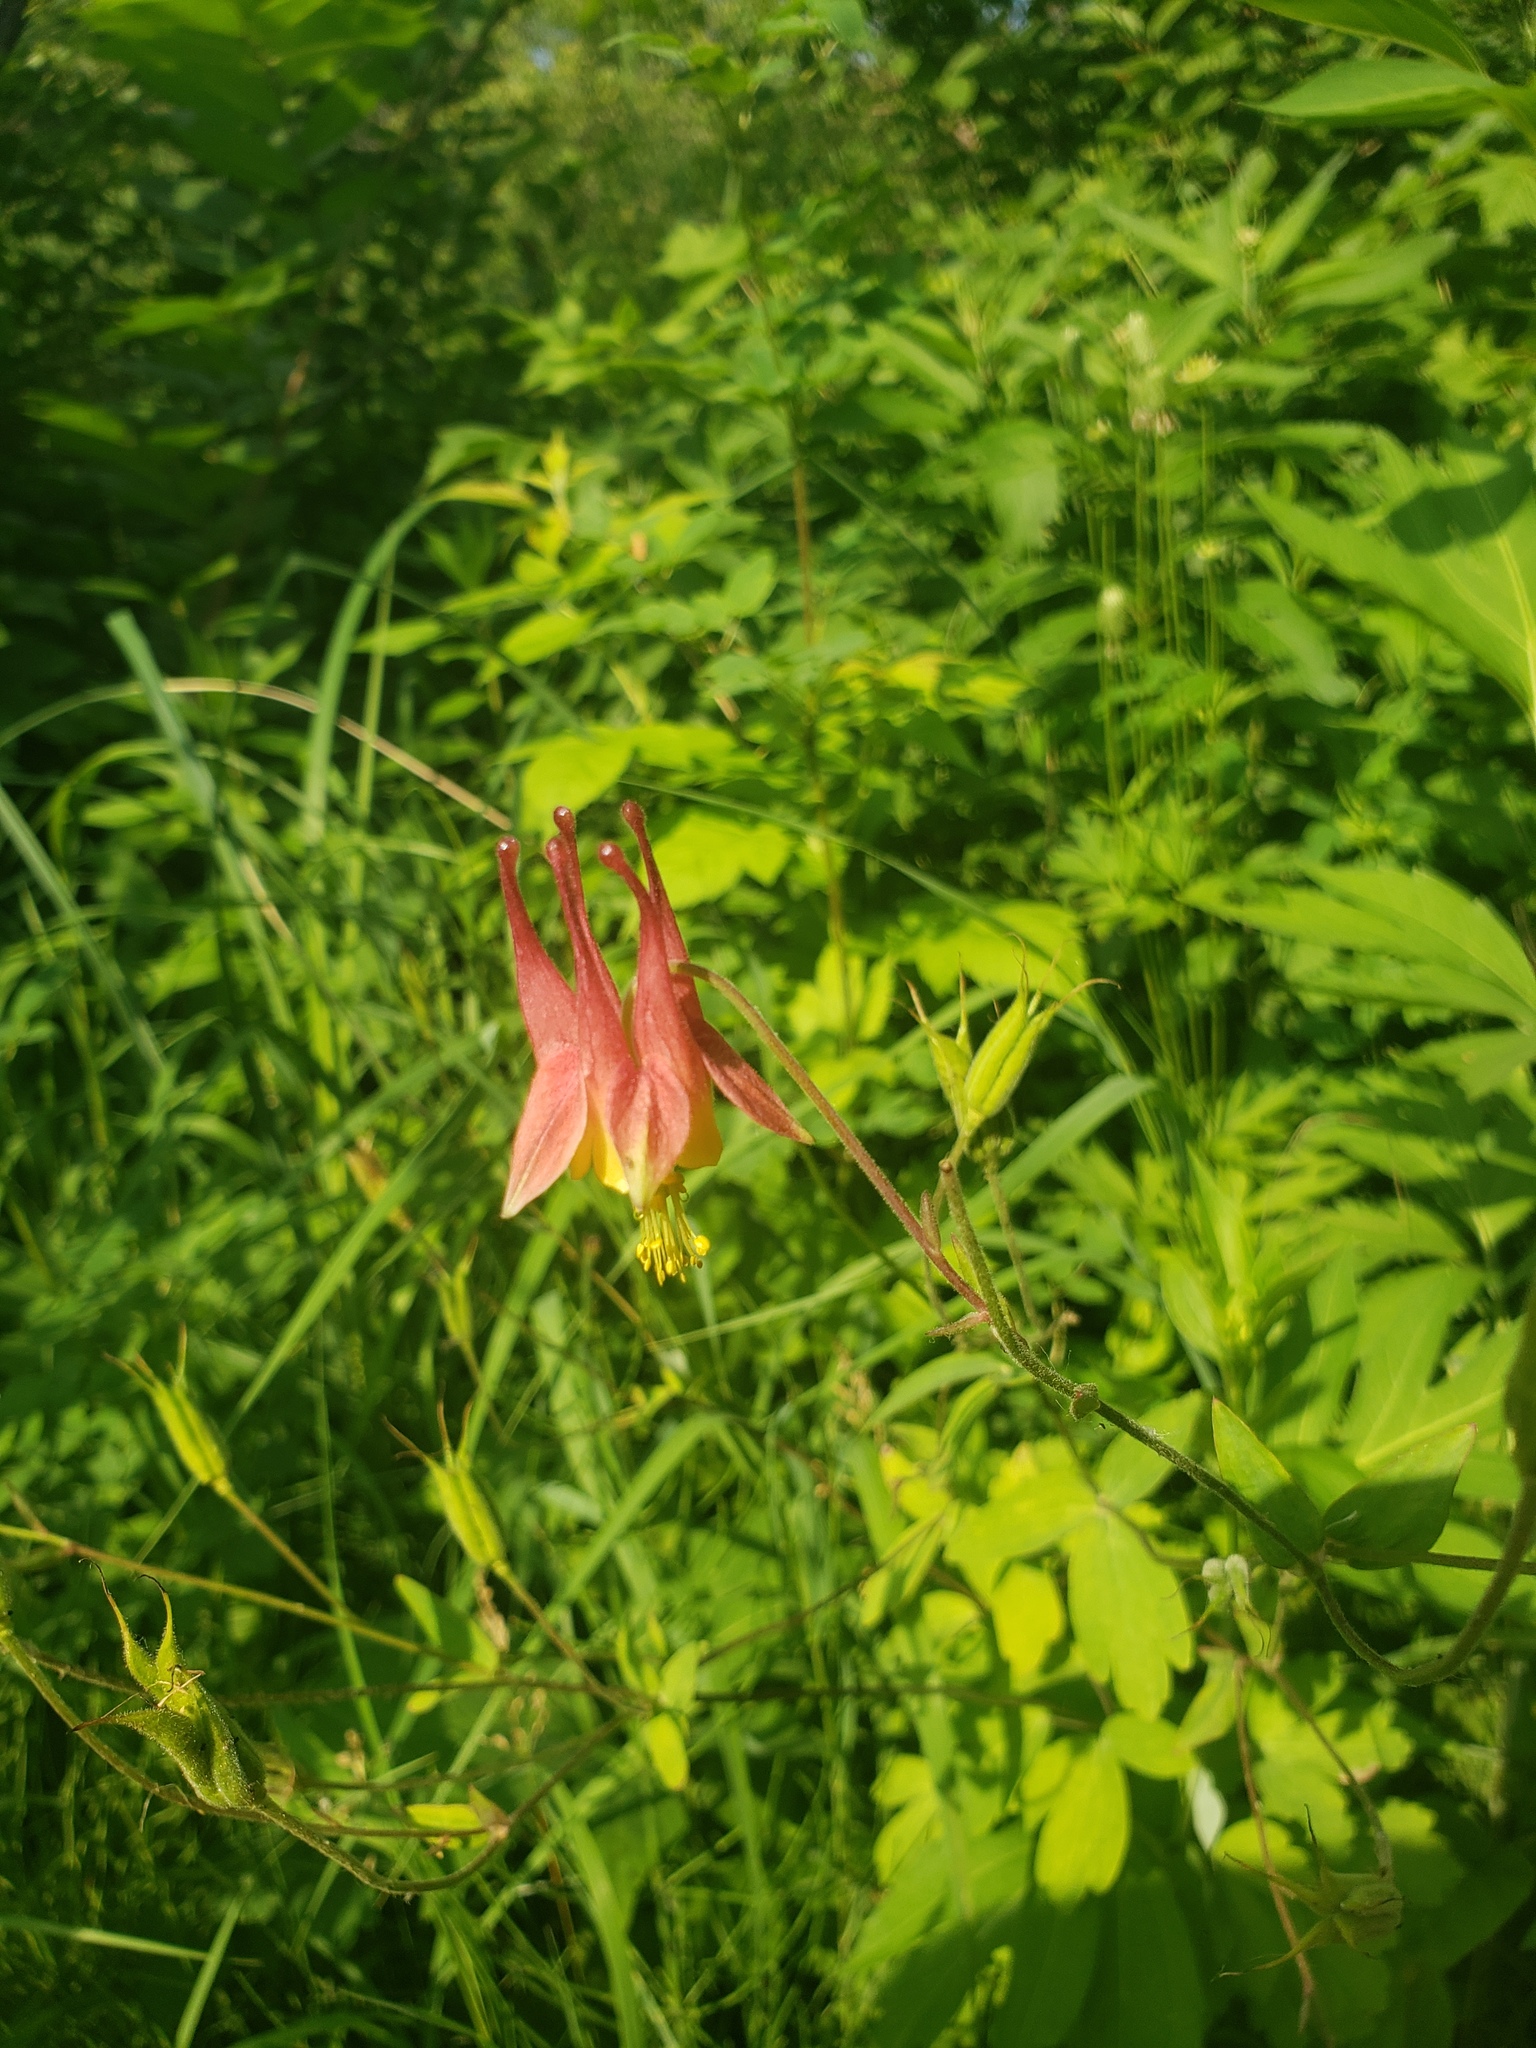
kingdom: Plantae
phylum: Tracheophyta
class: Magnoliopsida
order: Ranunculales
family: Ranunculaceae
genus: Aquilegia
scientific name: Aquilegia canadensis
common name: American columbine
